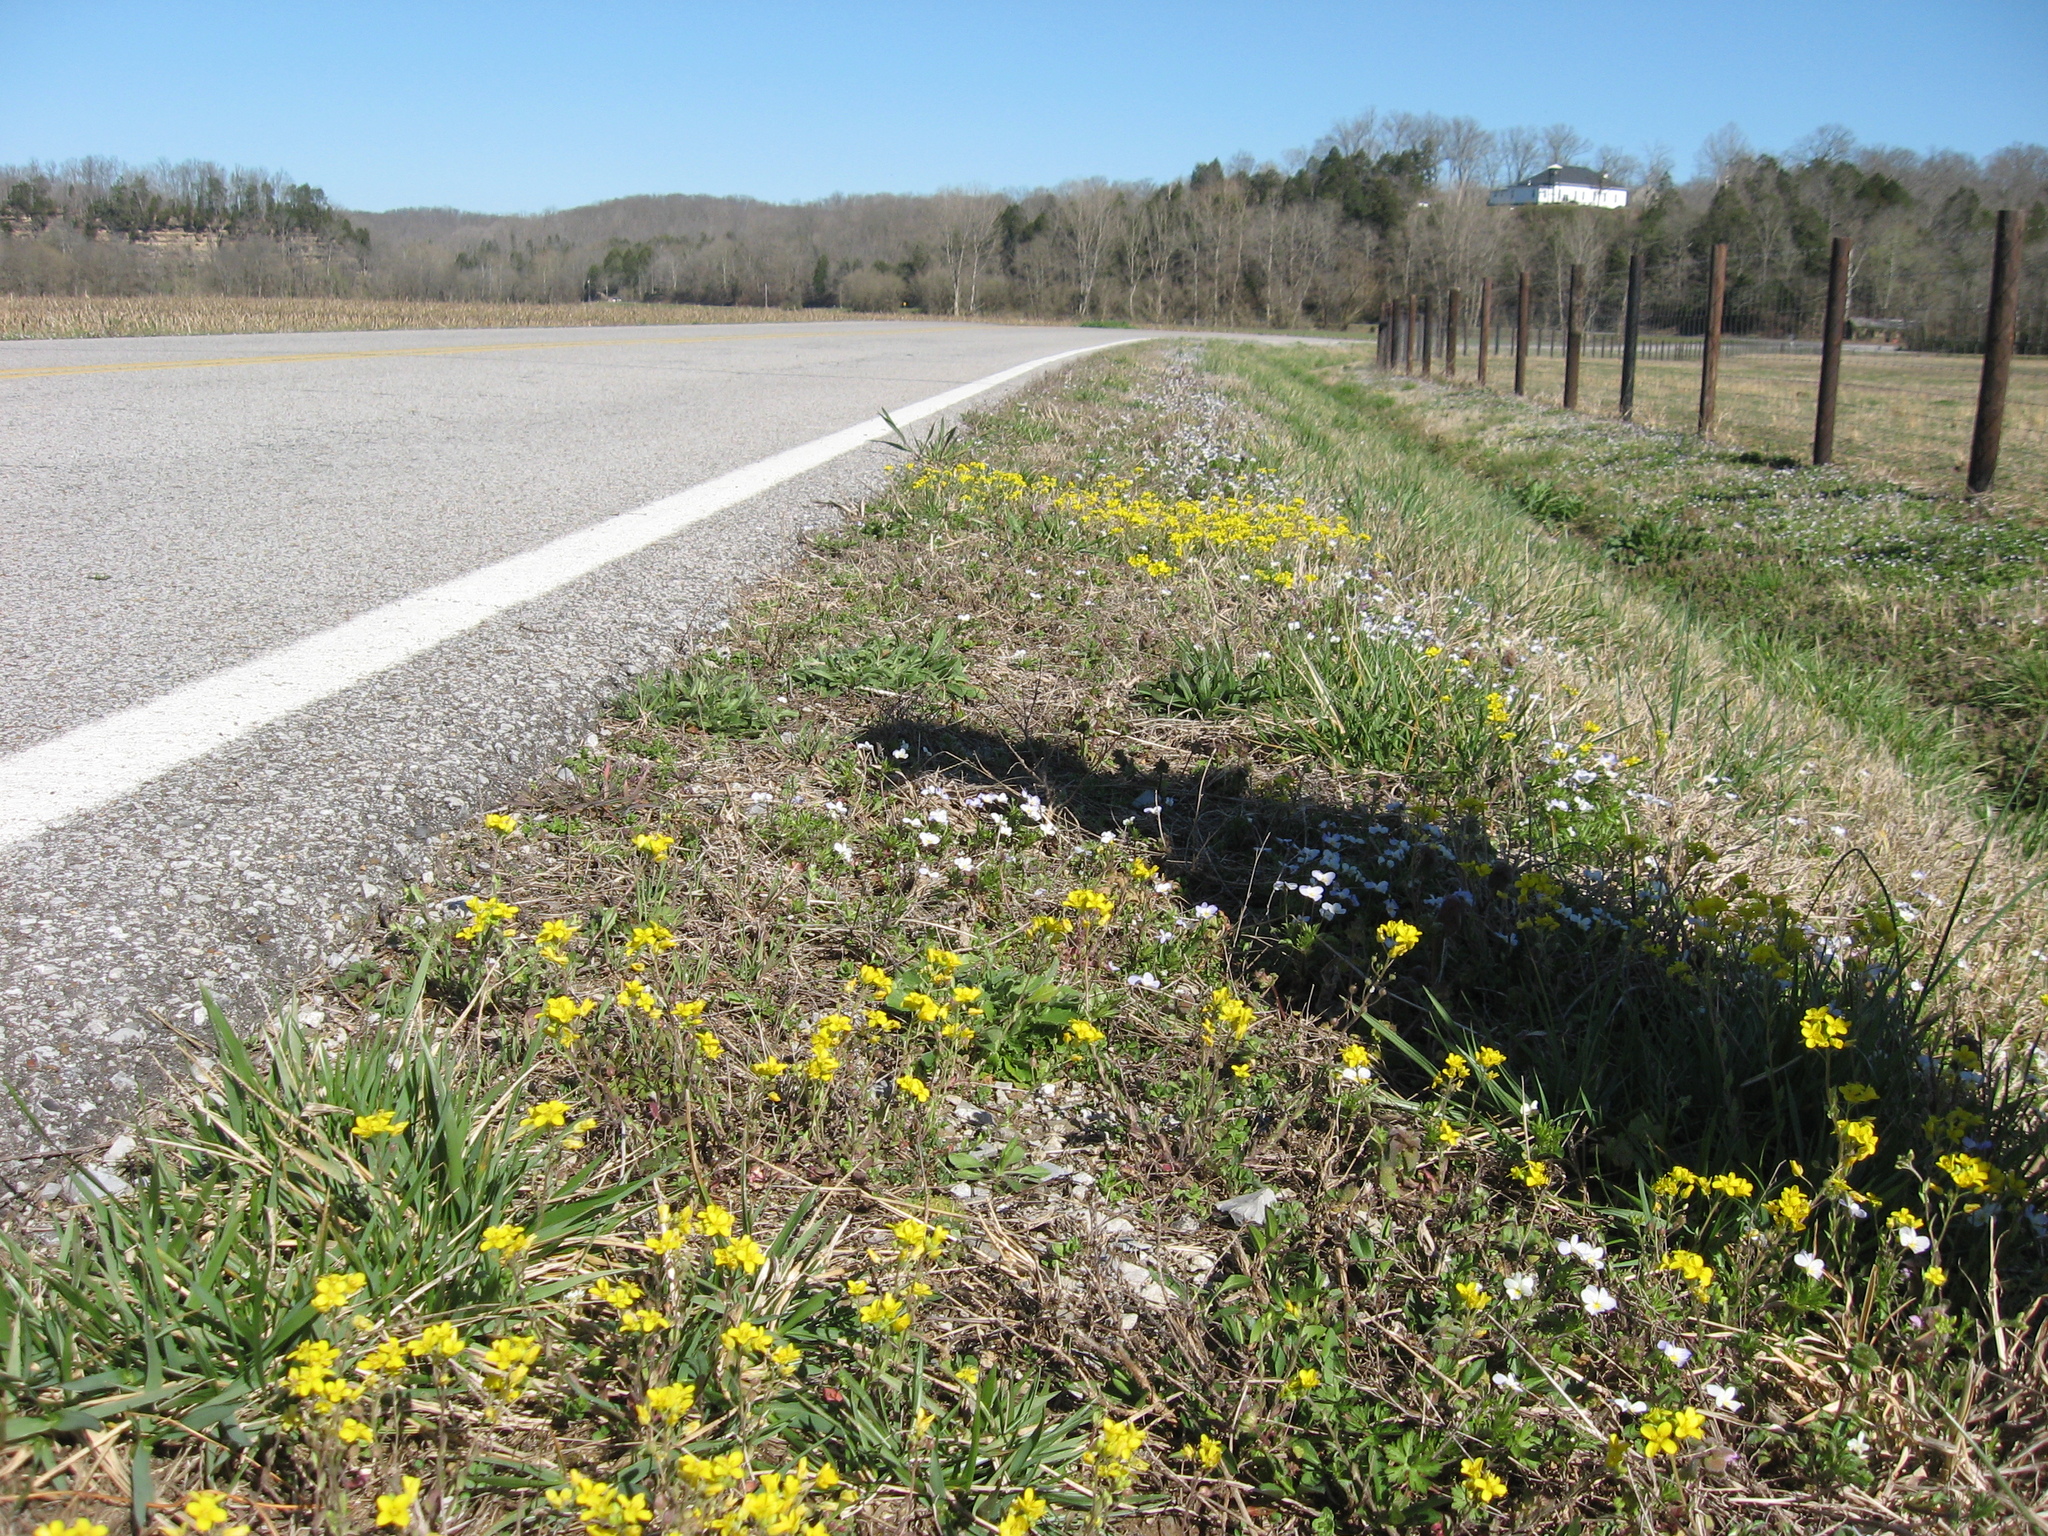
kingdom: Plantae
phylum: Tracheophyta
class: Magnoliopsida
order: Brassicales
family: Brassicaceae
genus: Paysonia
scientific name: Paysonia lescurii
